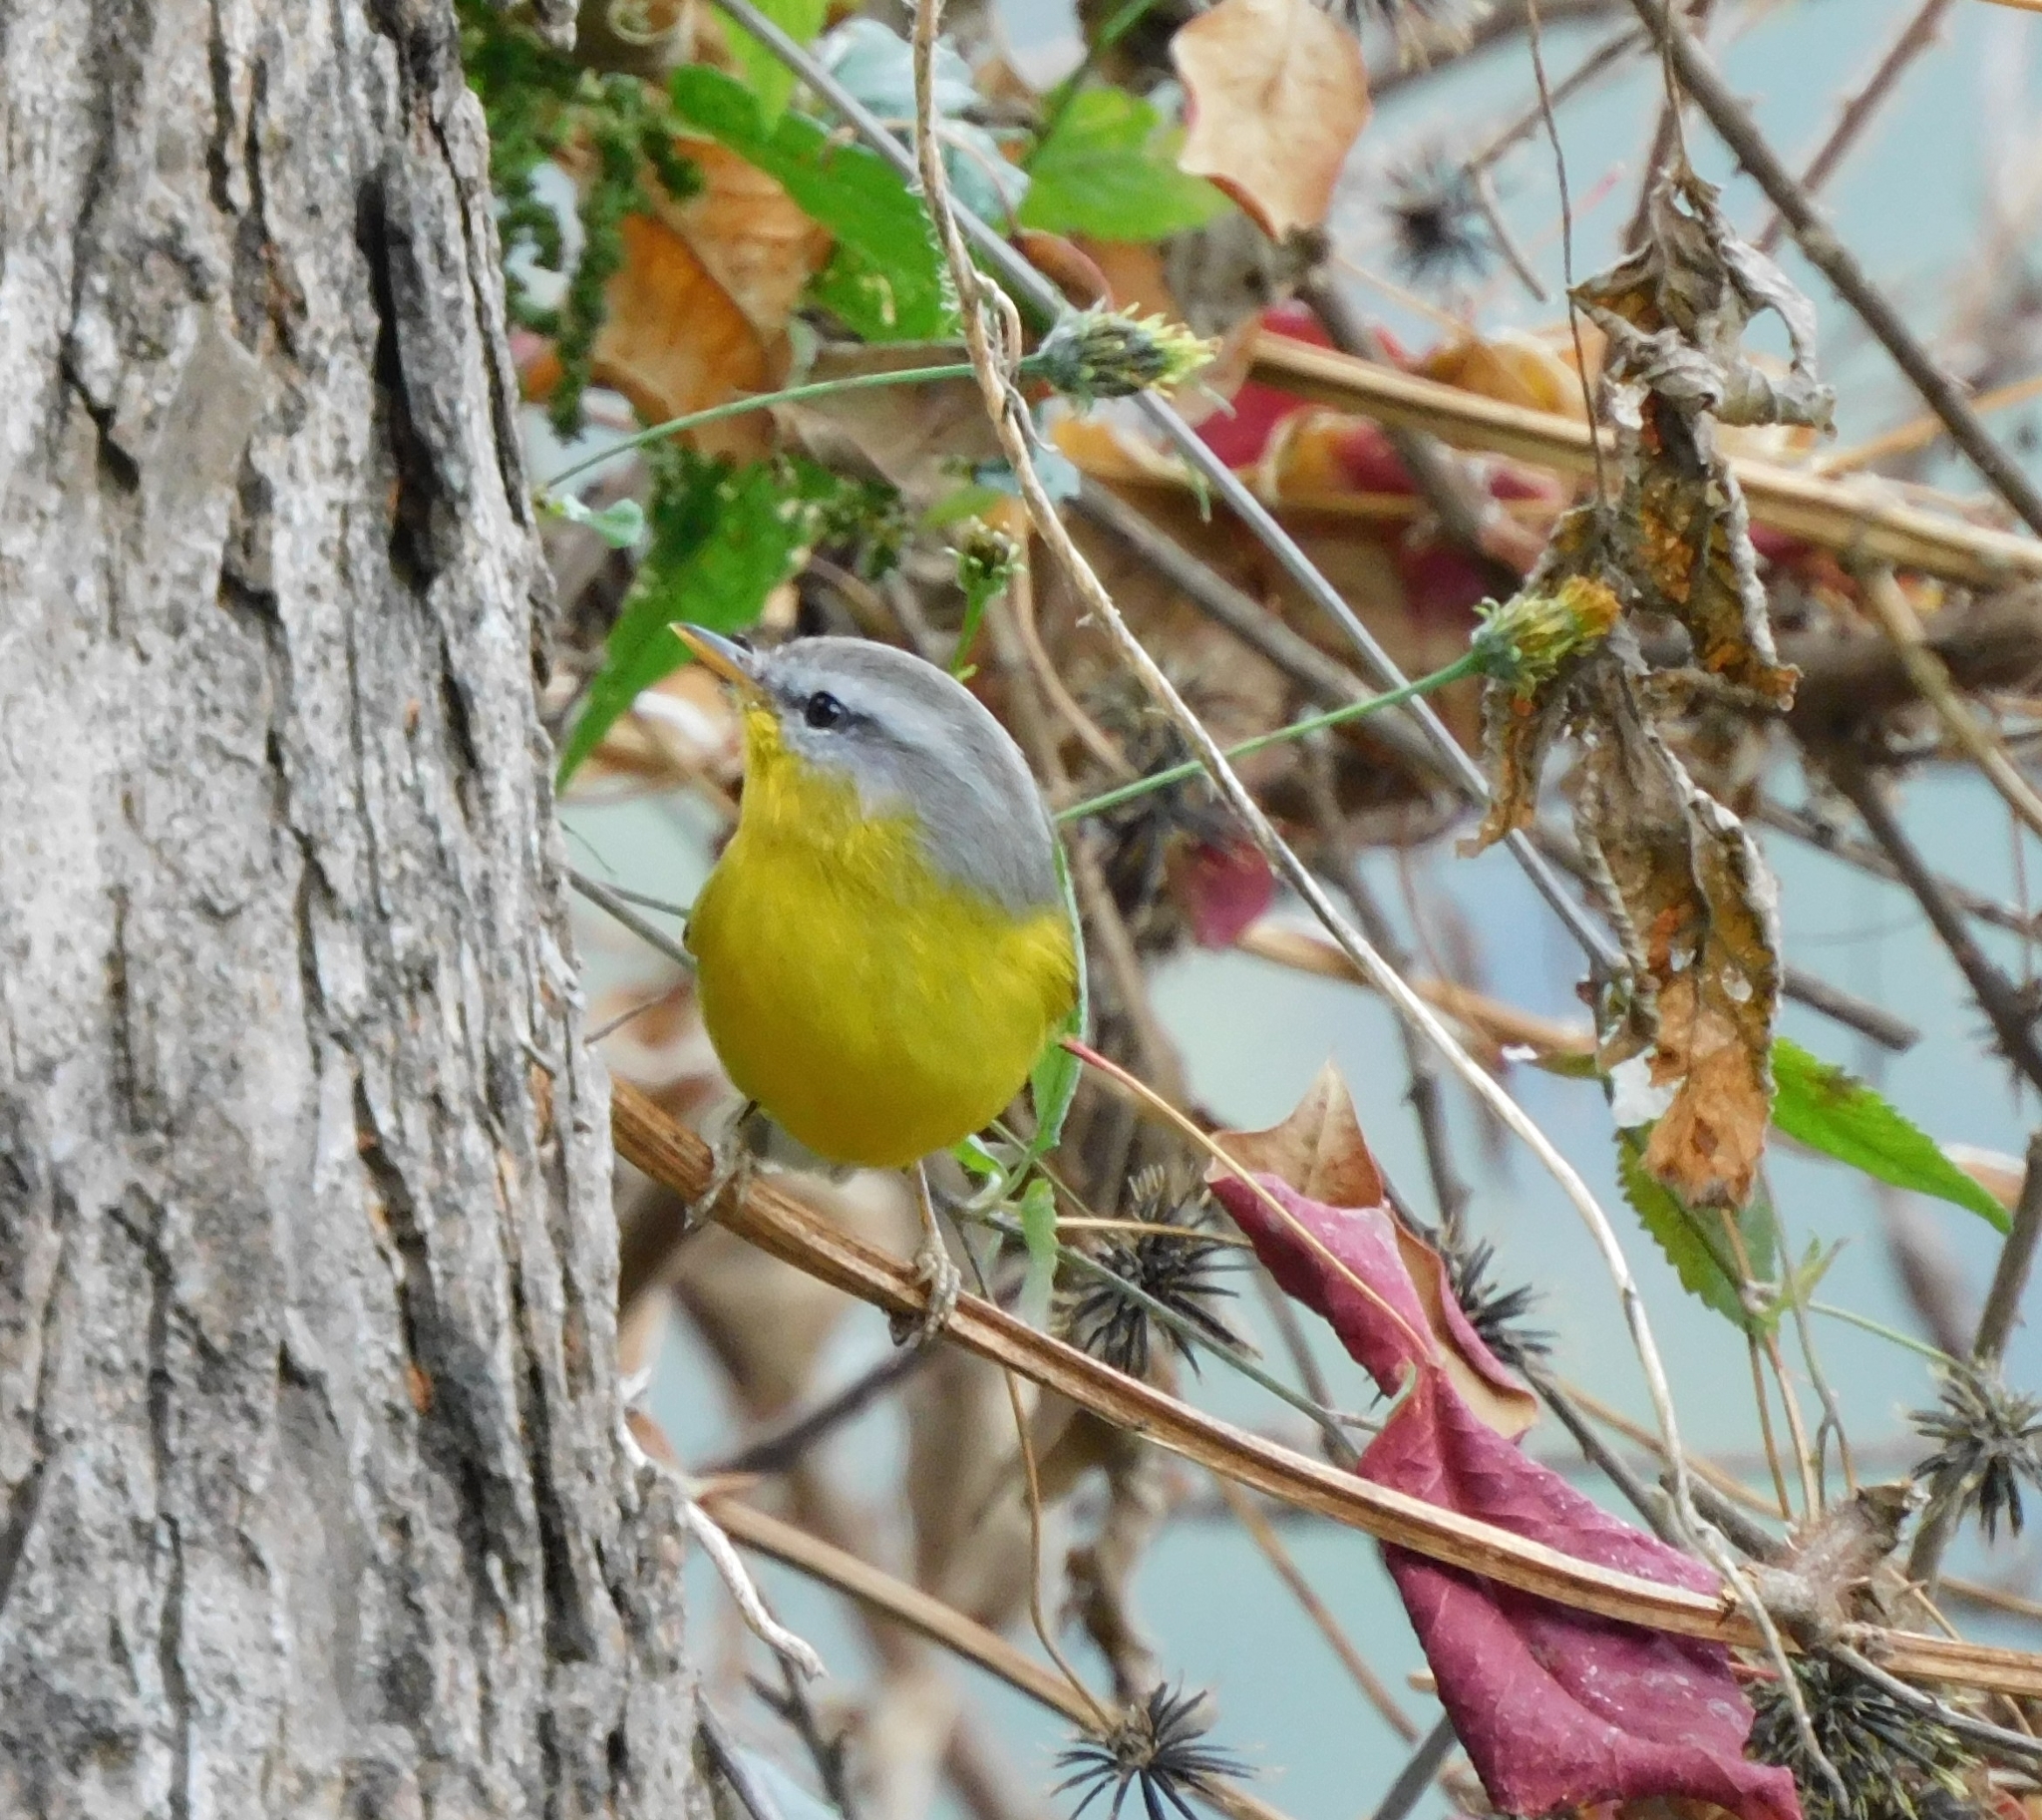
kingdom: Animalia
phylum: Chordata
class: Aves
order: Passeriformes
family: Phylloscopidae
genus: Phylloscopus
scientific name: Phylloscopus xanthoschistos
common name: Grey-hooded warbler
